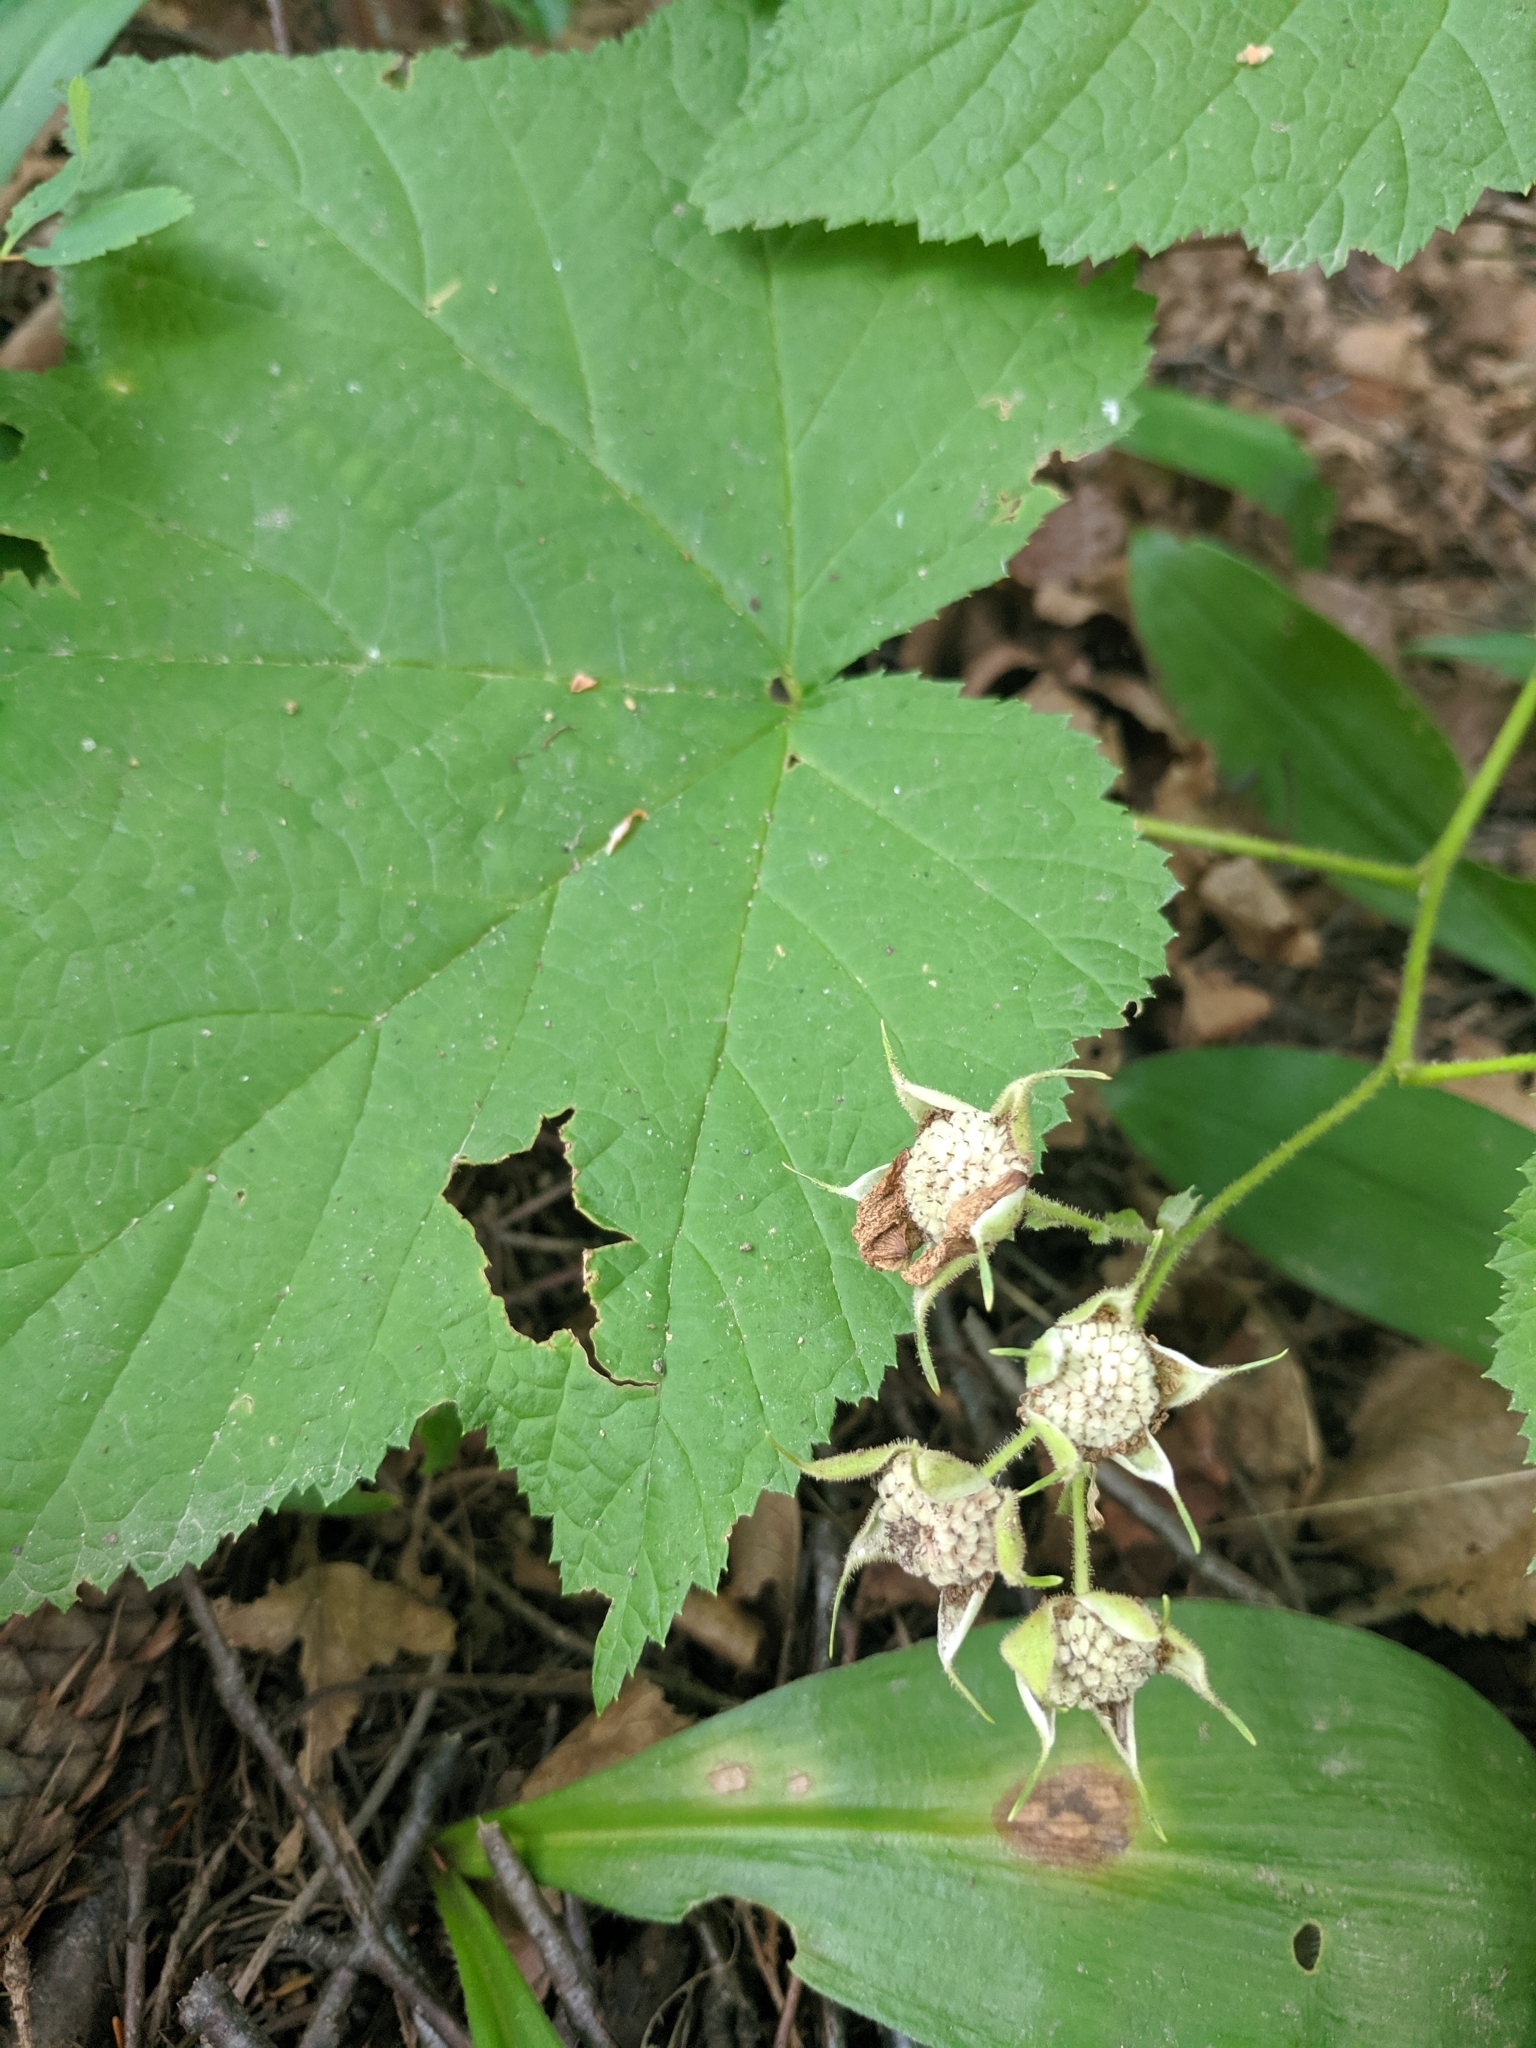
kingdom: Plantae
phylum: Tracheophyta
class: Magnoliopsida
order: Rosales
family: Rosaceae
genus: Rubus
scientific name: Rubus parviflorus
